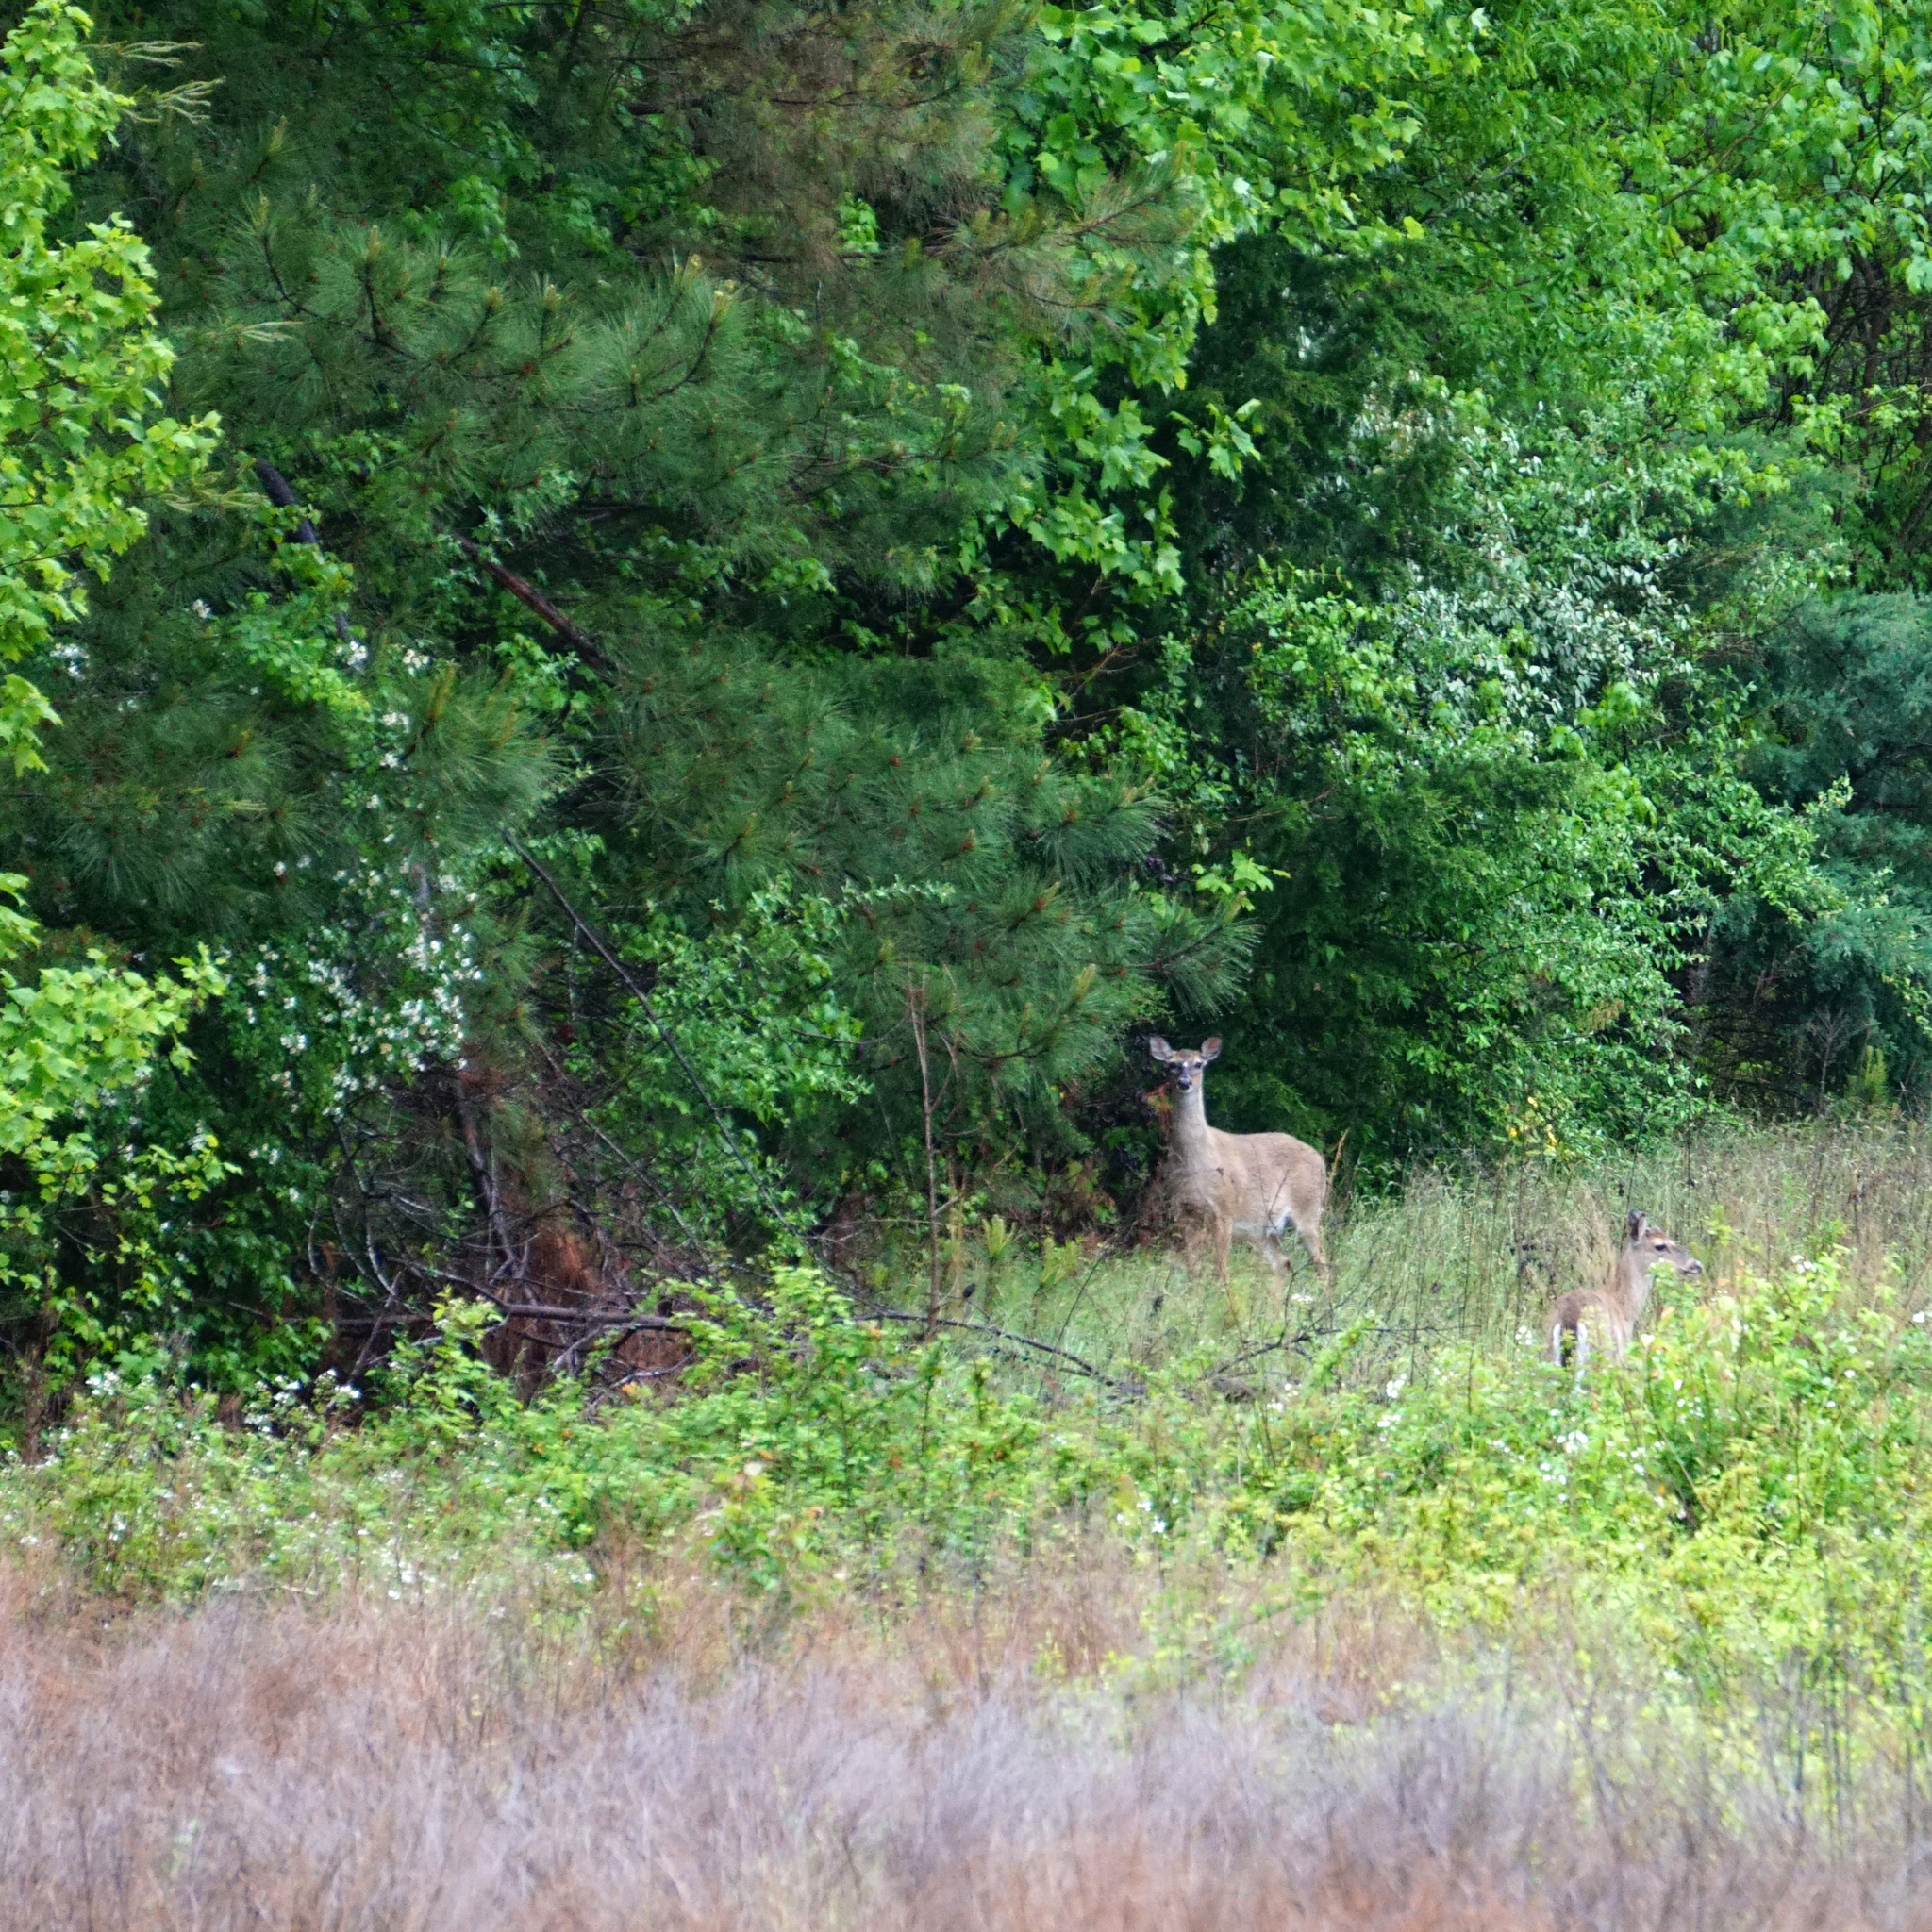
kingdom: Animalia
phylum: Chordata
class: Mammalia
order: Artiodactyla
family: Cervidae
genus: Odocoileus
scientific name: Odocoileus virginianus
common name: White-tailed deer
